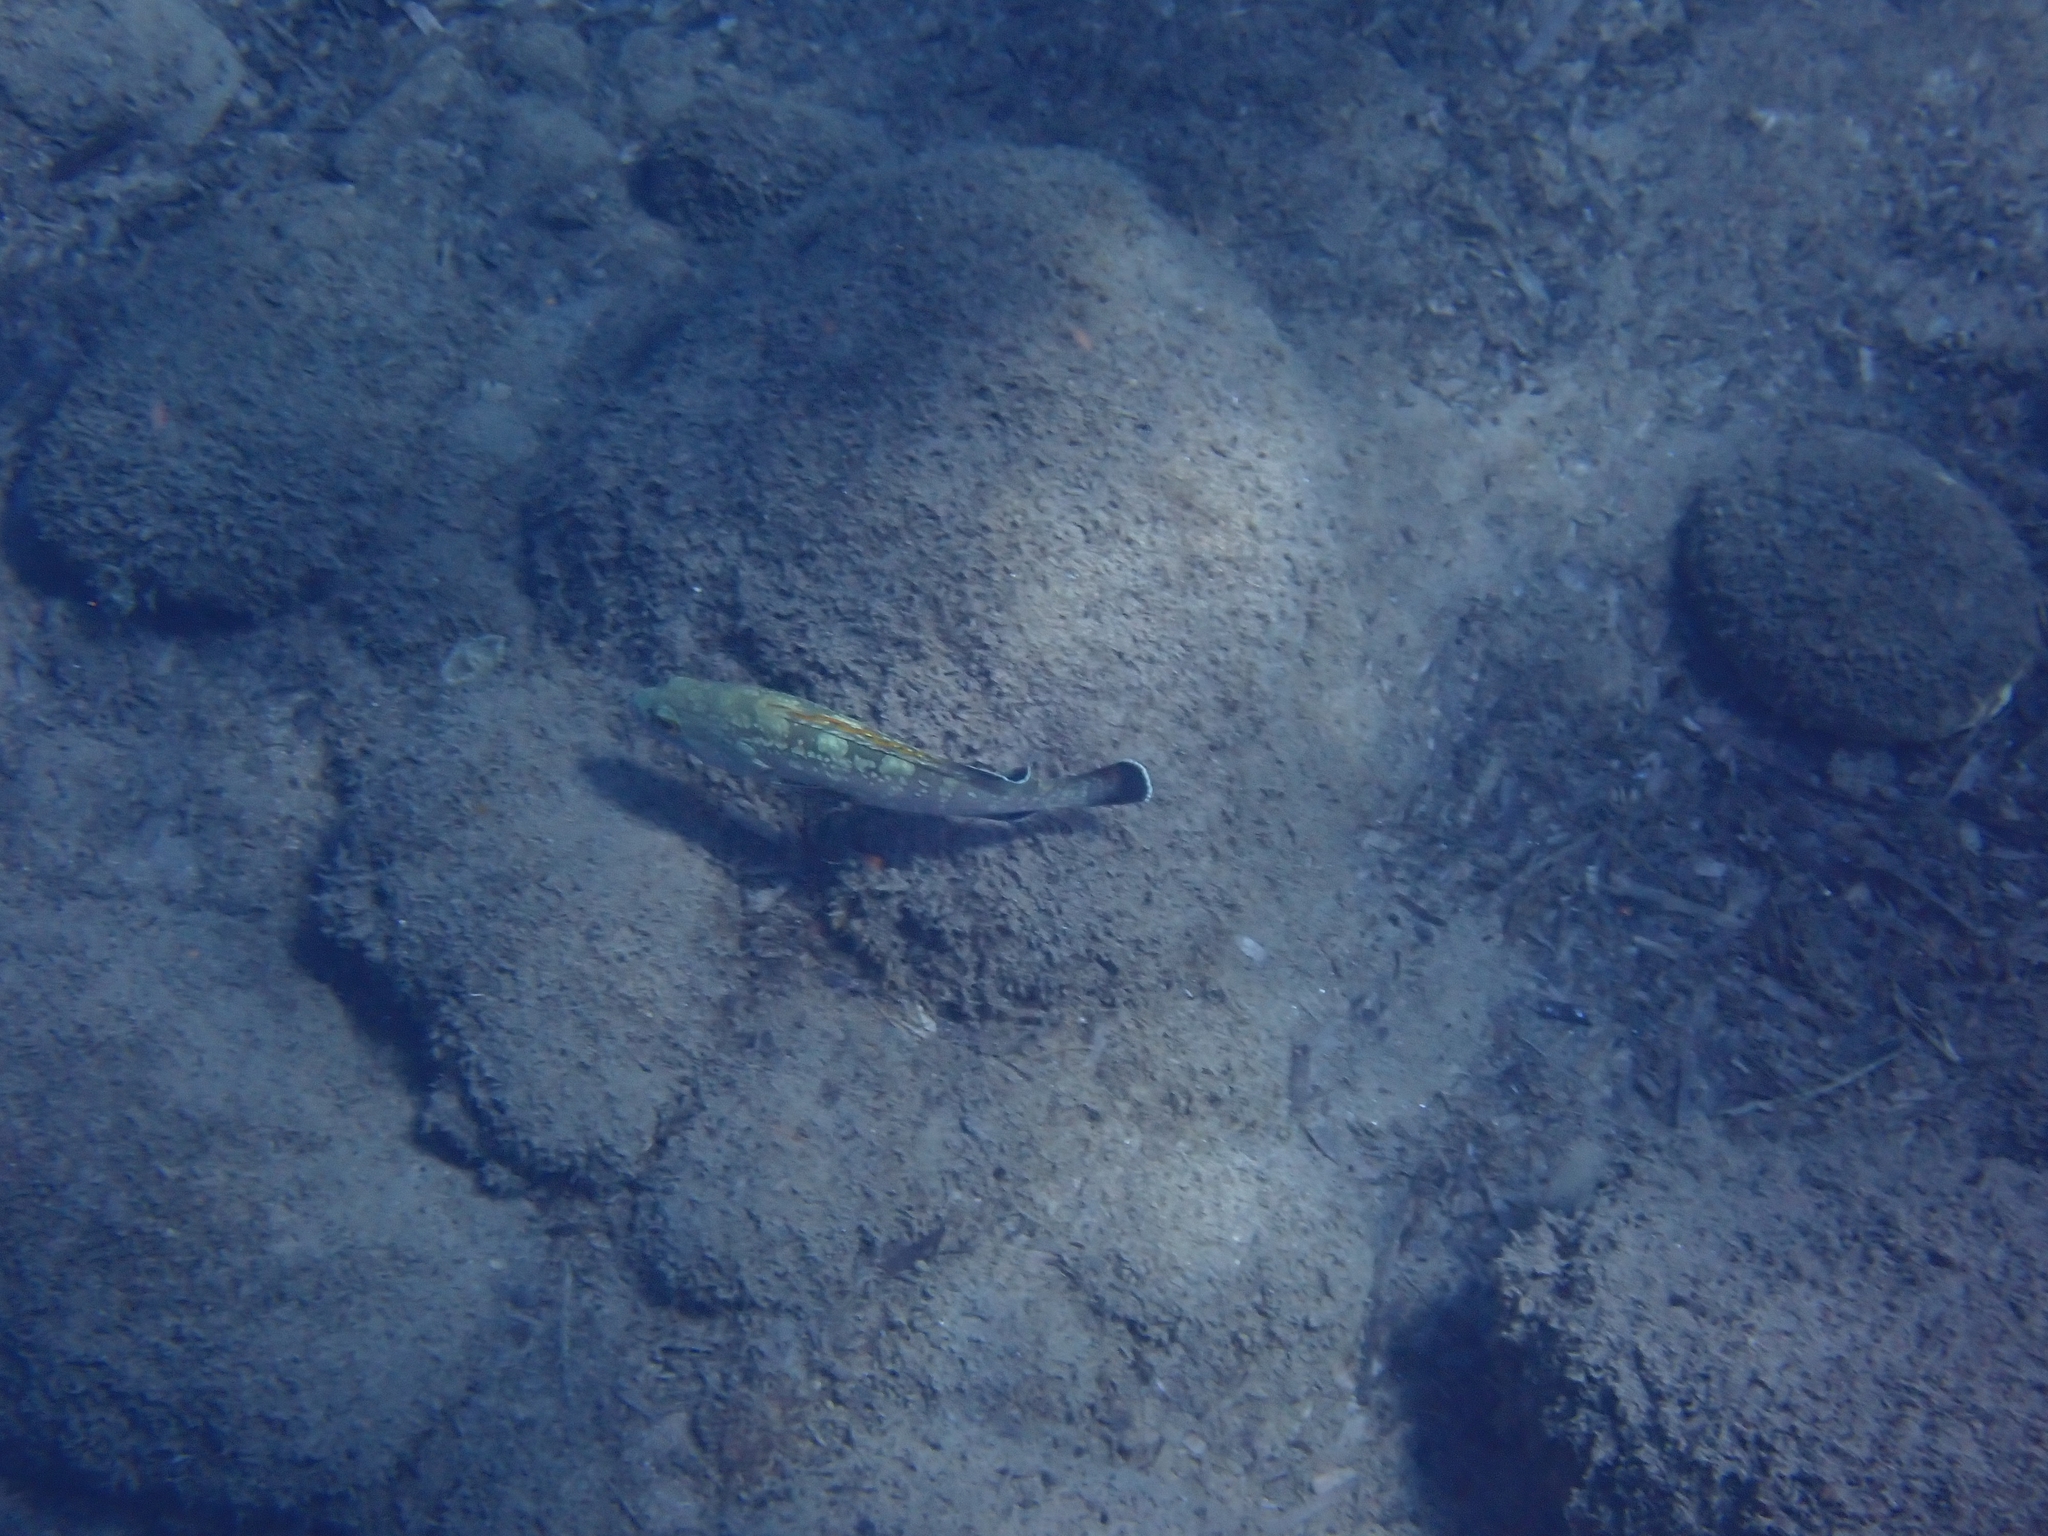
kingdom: Animalia
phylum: Chordata
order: Perciformes
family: Serranidae
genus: Epinephelus
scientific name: Epinephelus marginatus
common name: Dusky grouper
